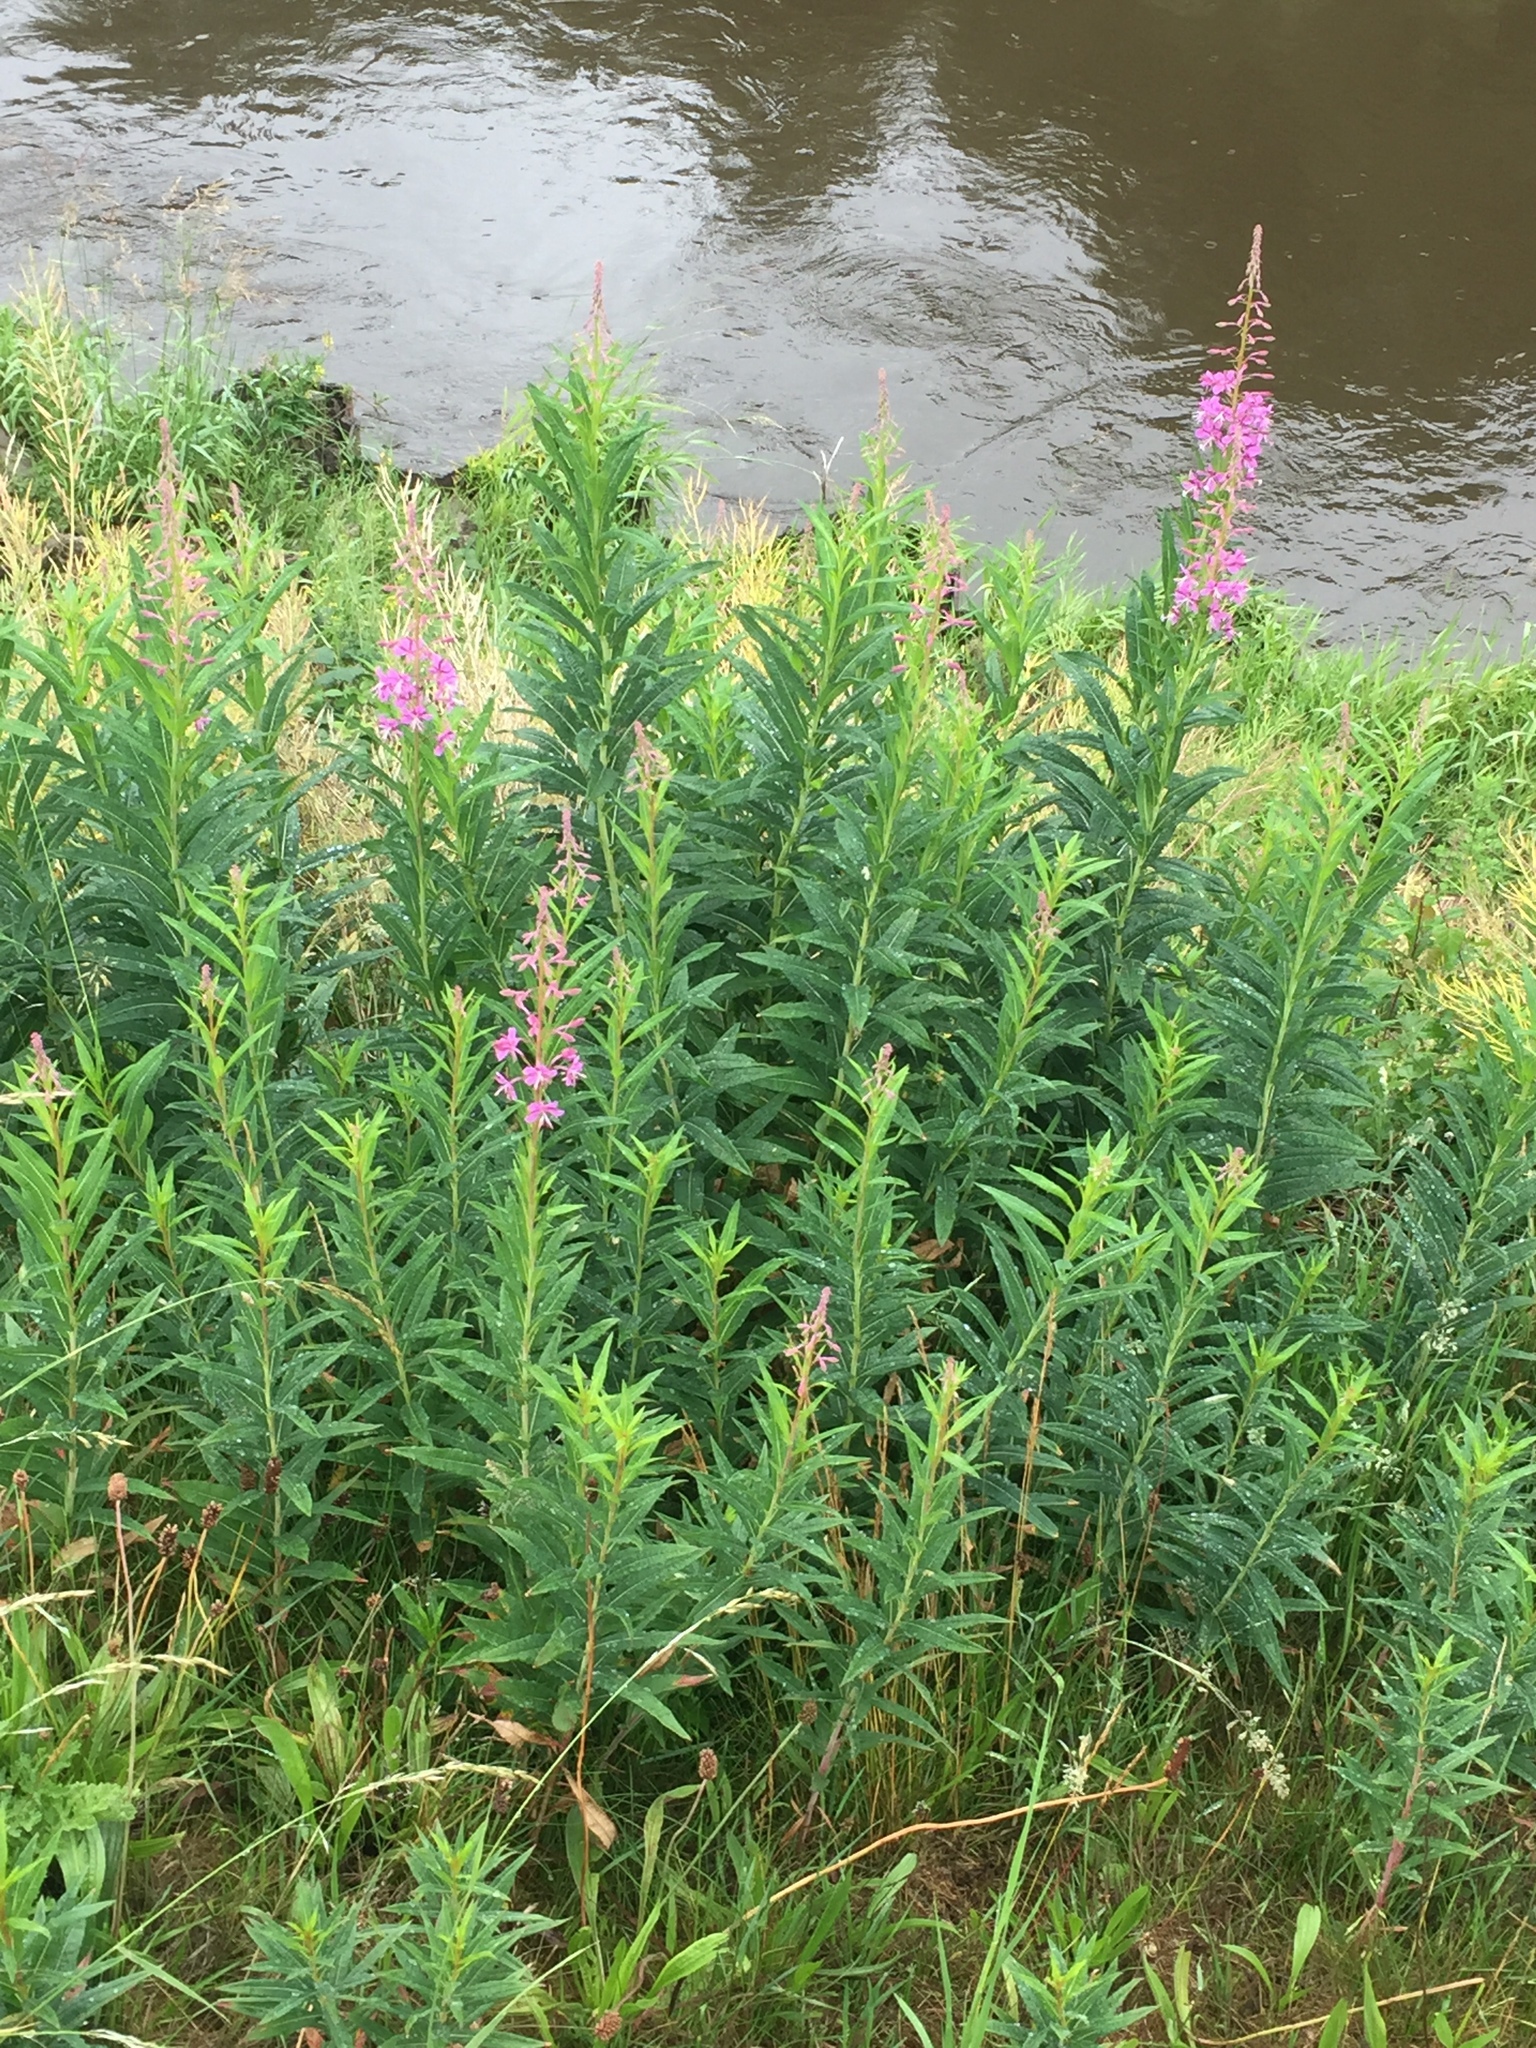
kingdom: Plantae
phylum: Tracheophyta
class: Magnoliopsida
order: Myrtales
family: Onagraceae
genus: Chamaenerion
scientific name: Chamaenerion angustifolium
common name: Fireweed
